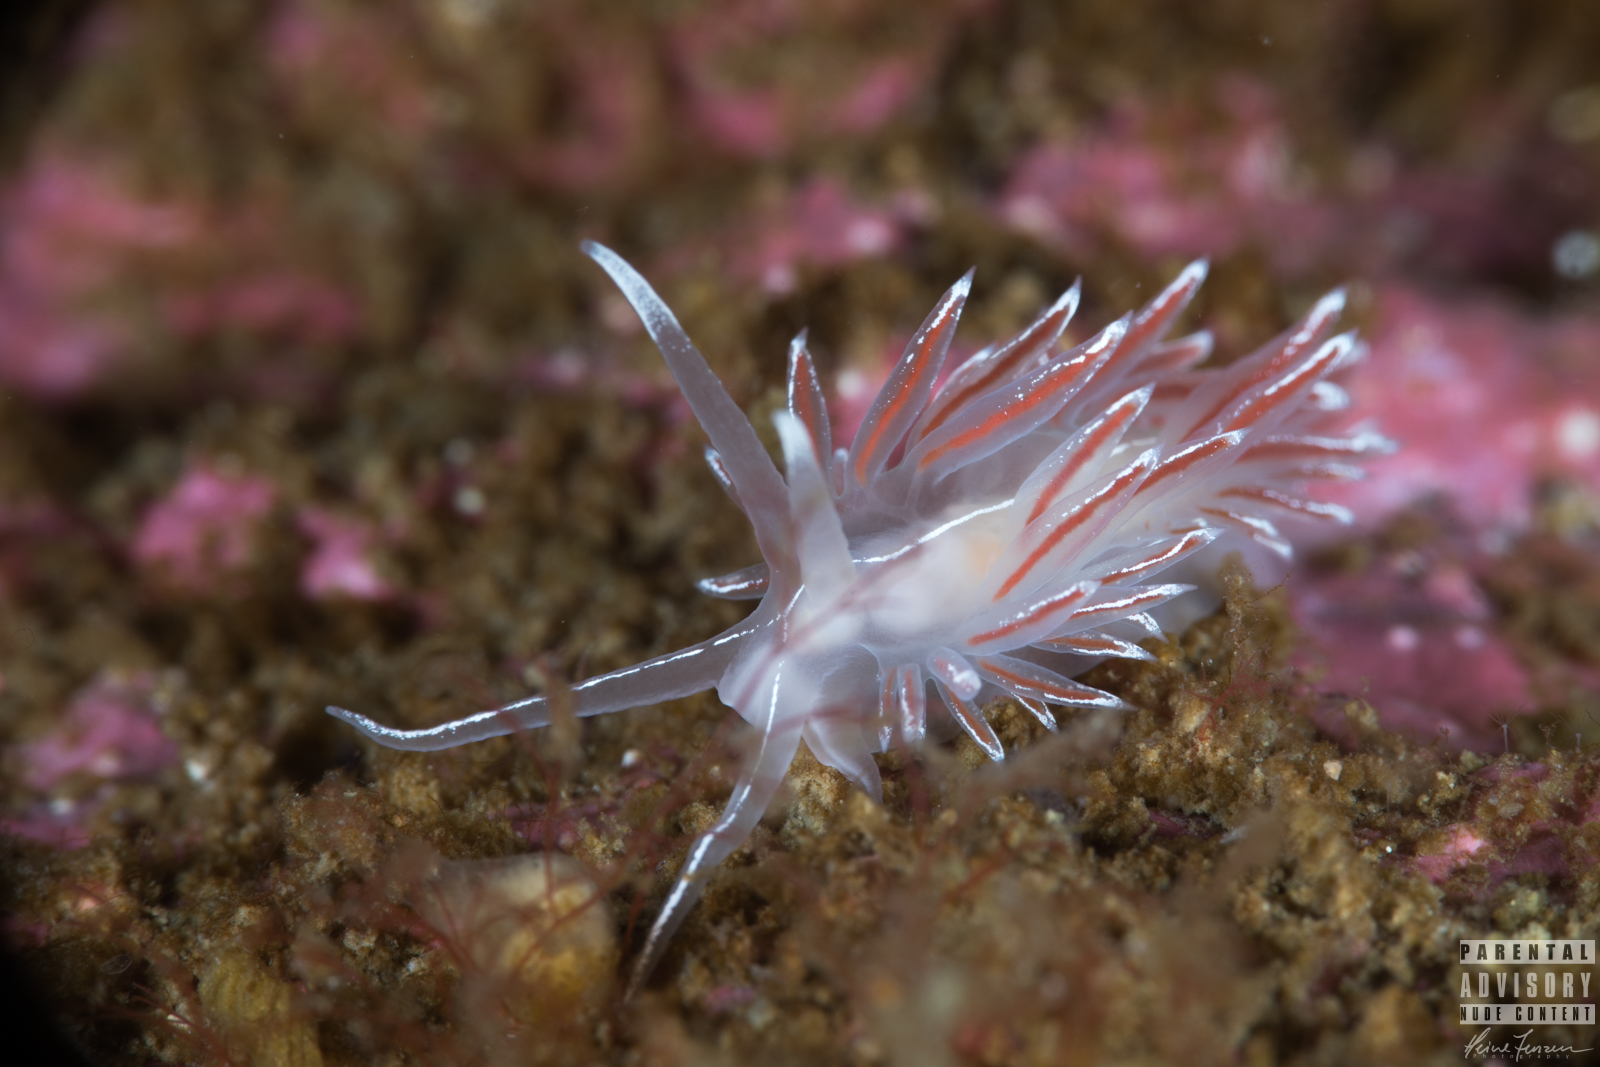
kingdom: Animalia
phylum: Mollusca
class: Gastropoda
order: Nudibranchia
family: Coryphellidae
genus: Coryphella
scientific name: Coryphella lineata
